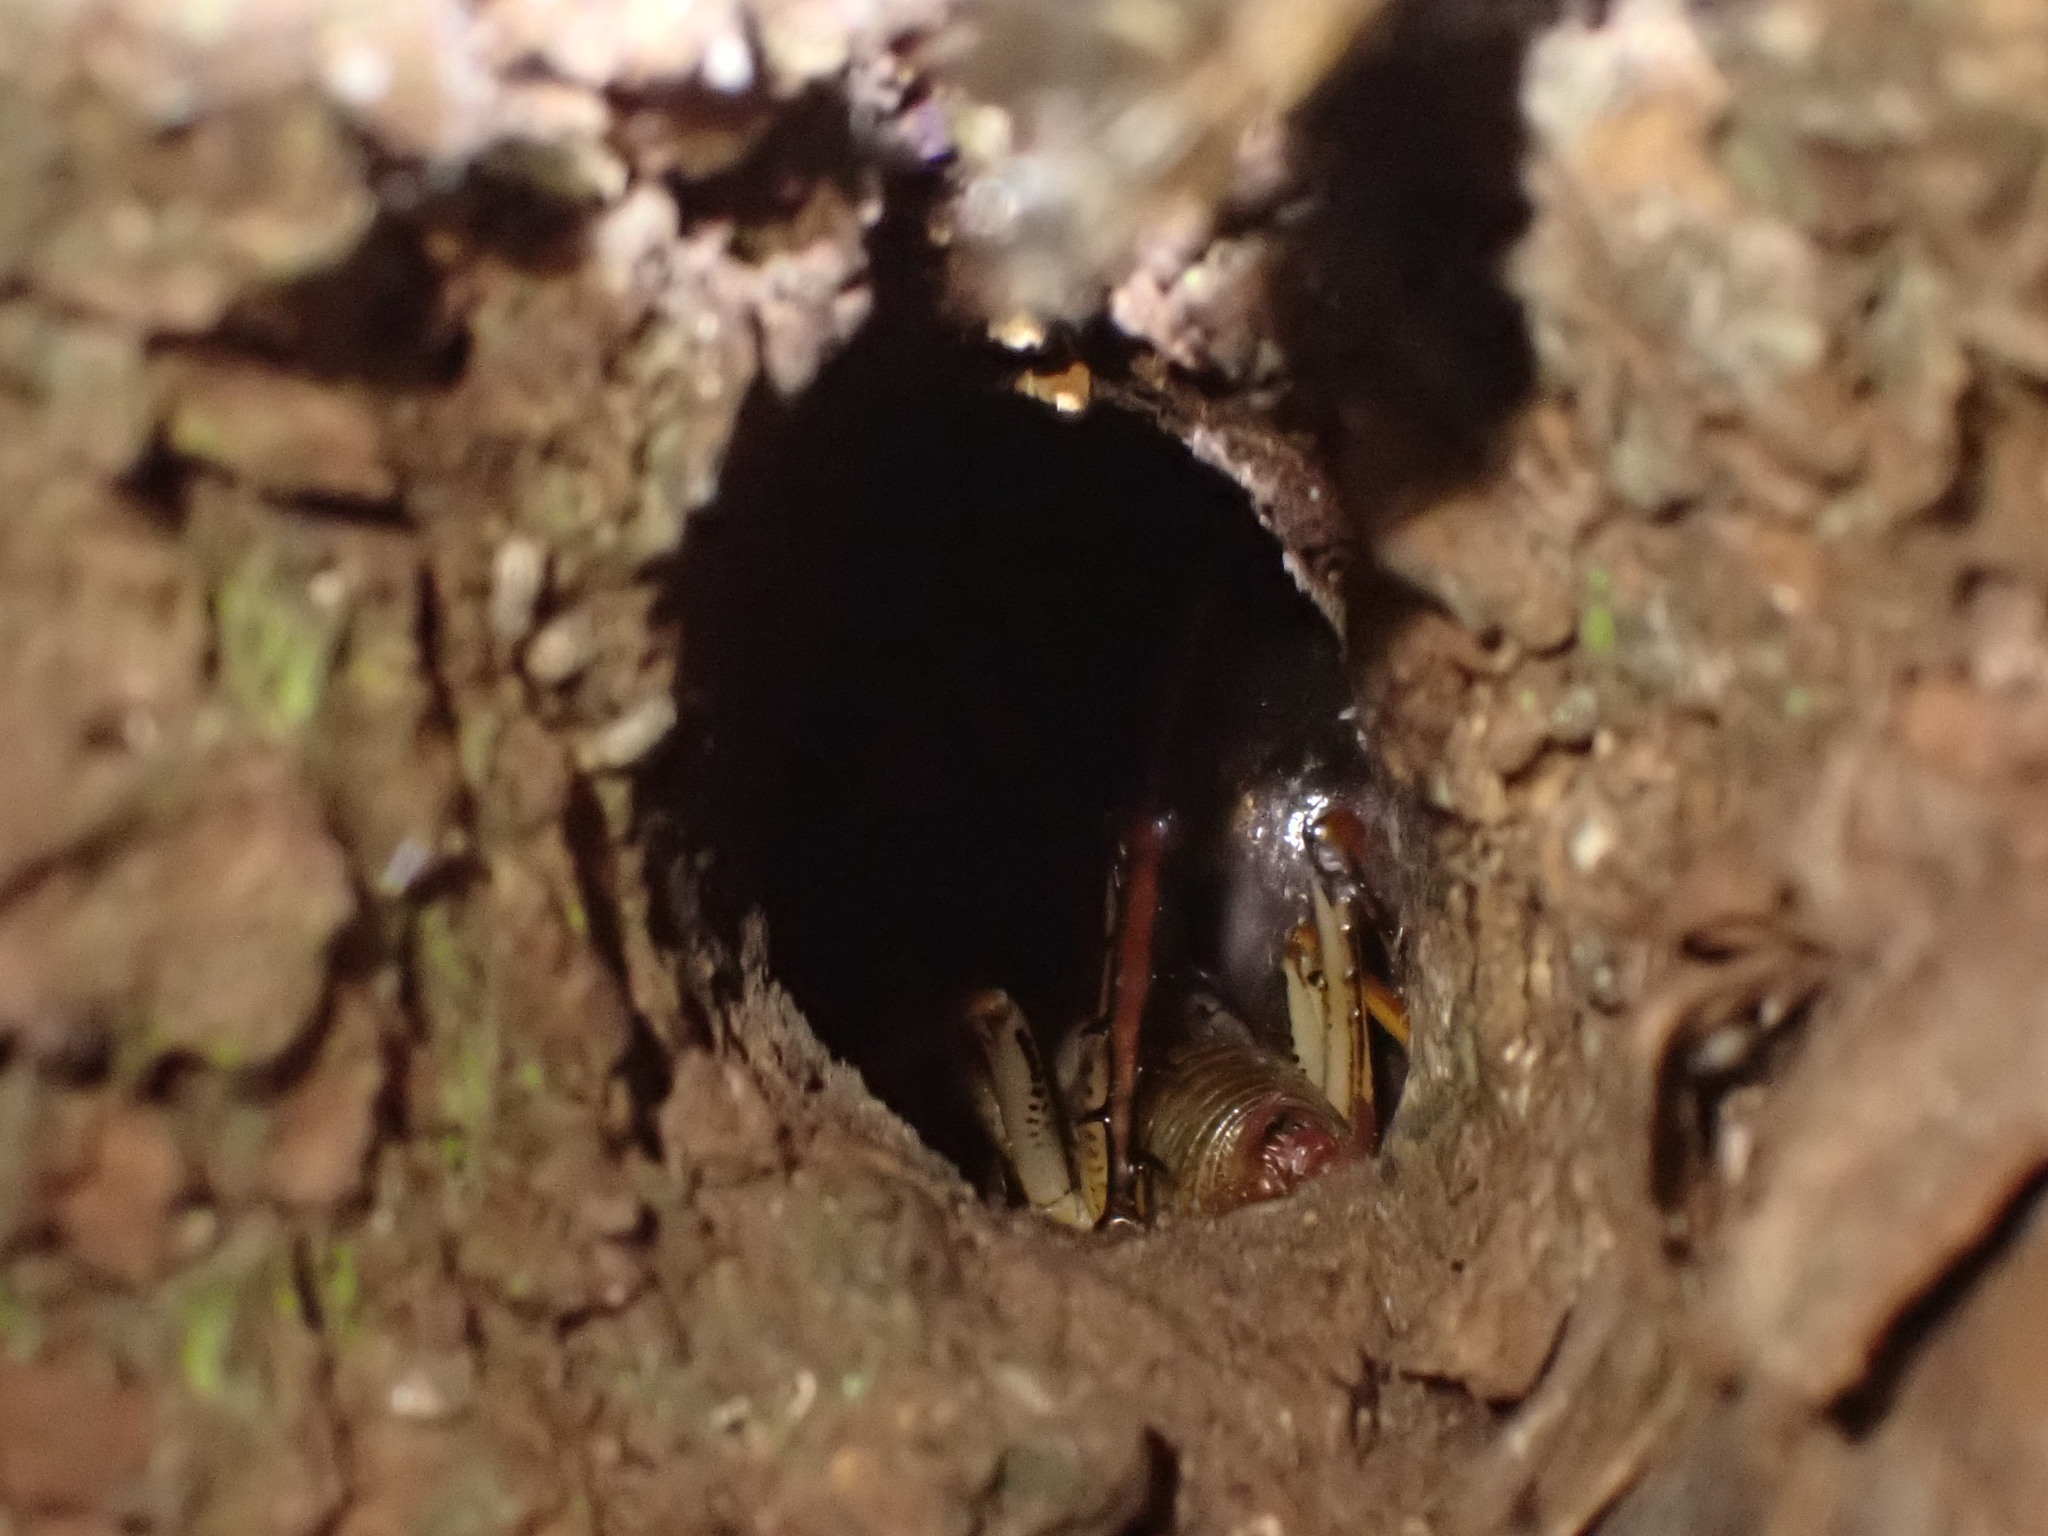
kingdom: Animalia
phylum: Arthropoda
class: Insecta
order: Orthoptera
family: Anostostomatidae
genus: Hemideina
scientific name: Hemideina thoracica
